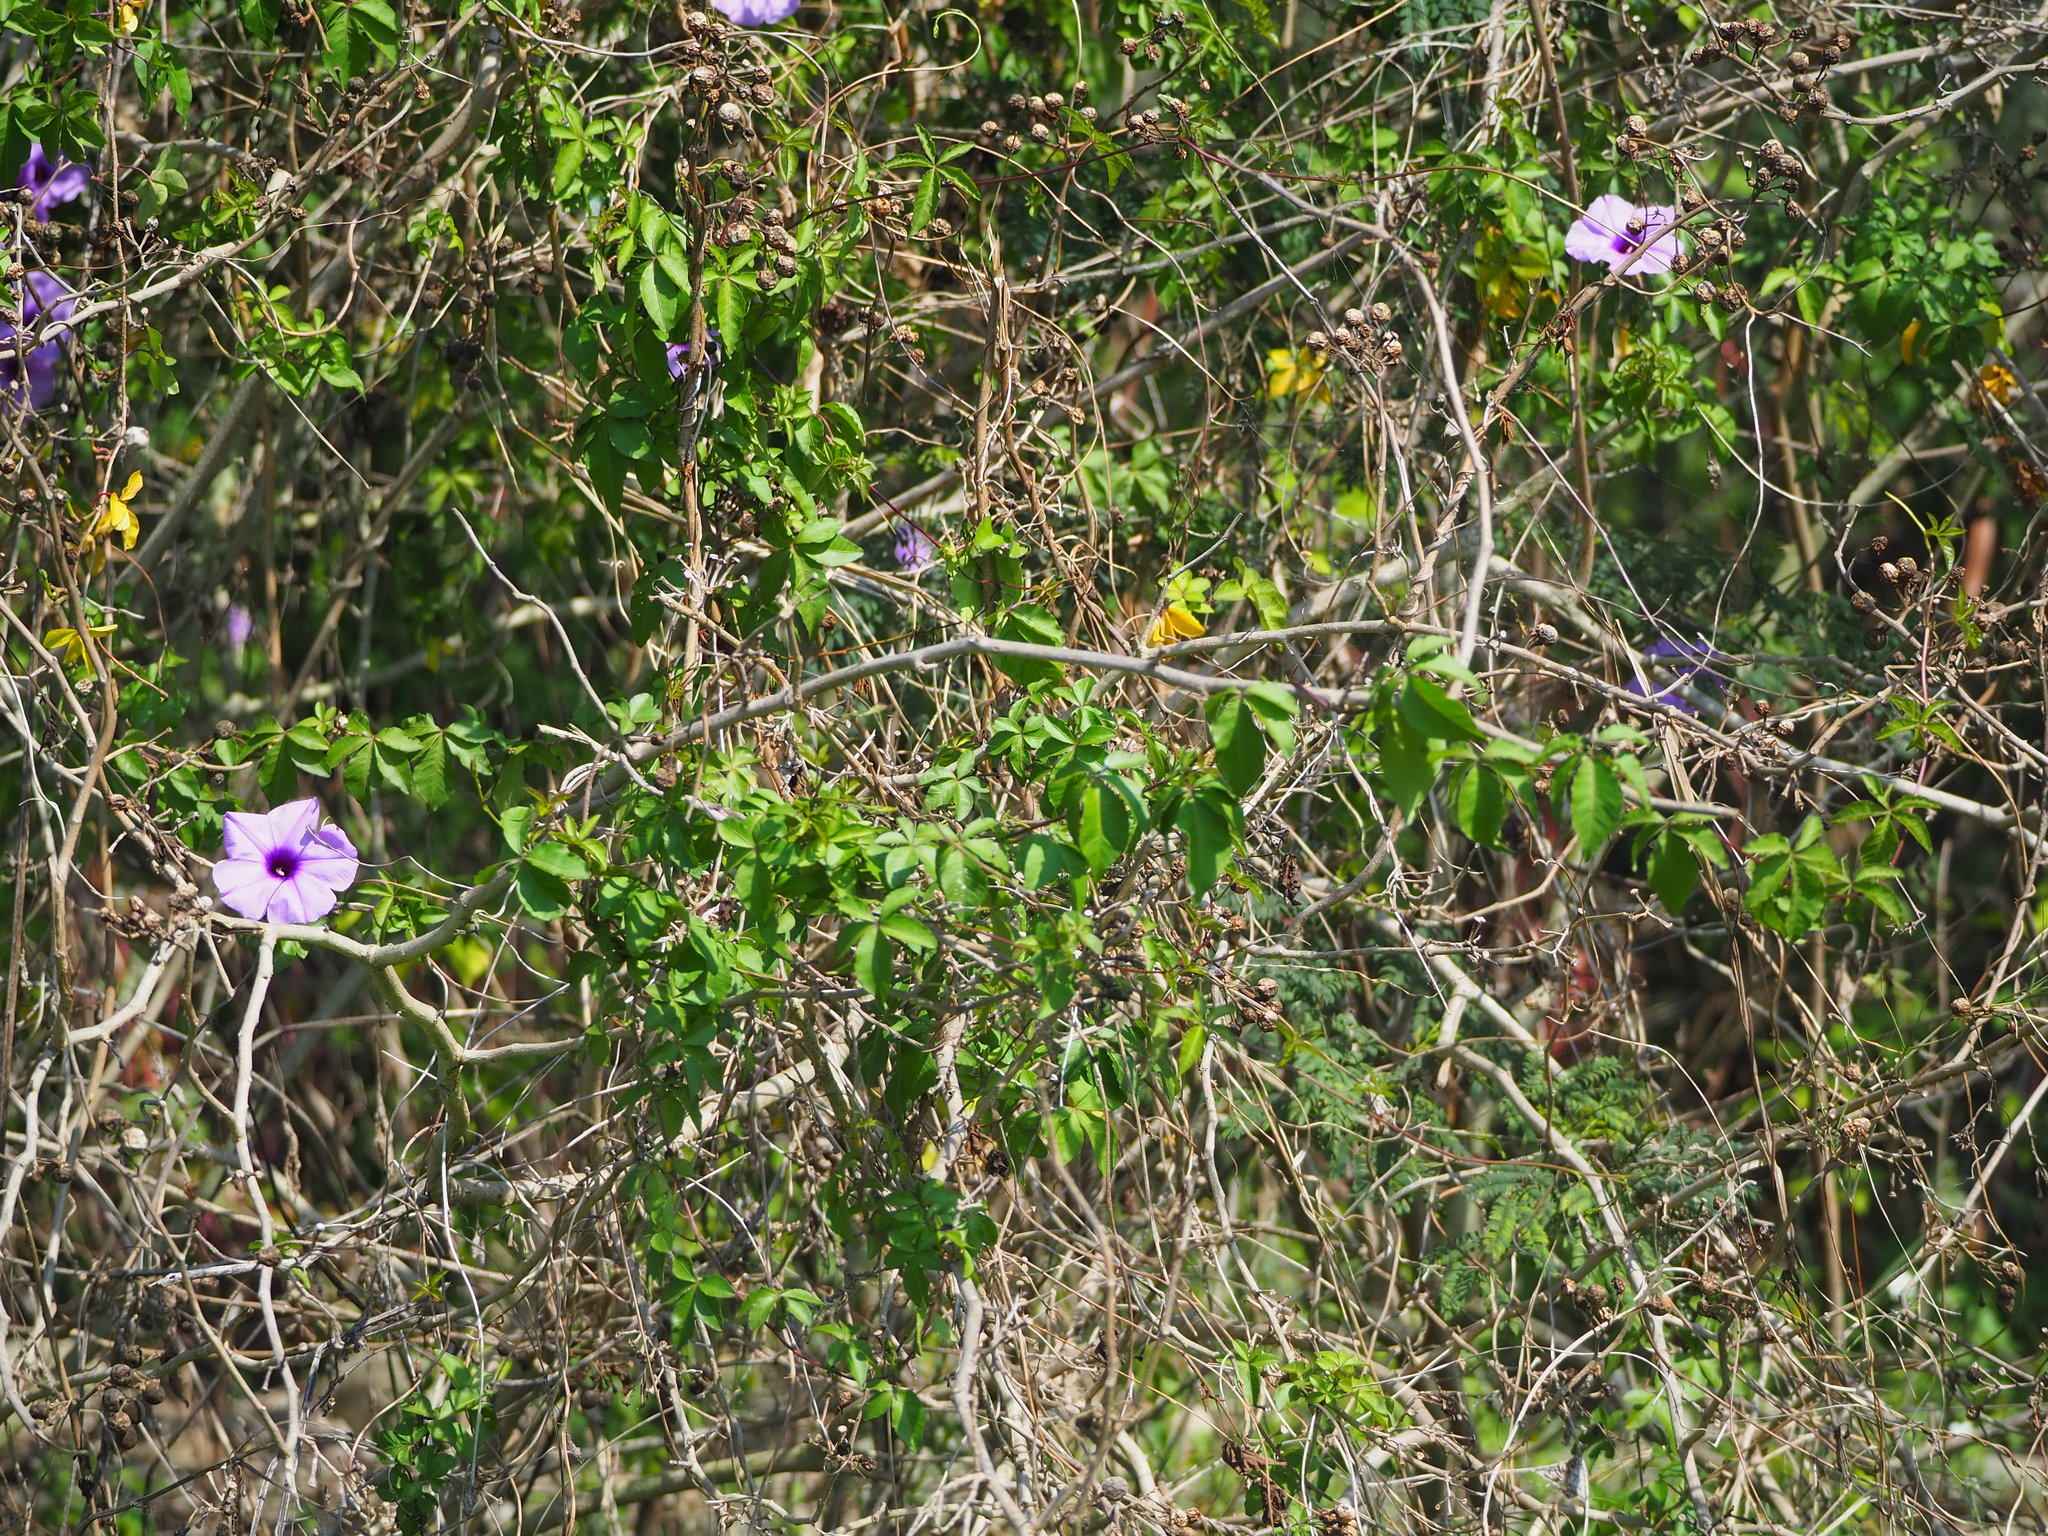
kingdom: Plantae
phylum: Tracheophyta
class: Magnoliopsida
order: Solanales
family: Convolvulaceae
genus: Ipomoea
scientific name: Ipomoea cairica
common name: Mile a minute vine
